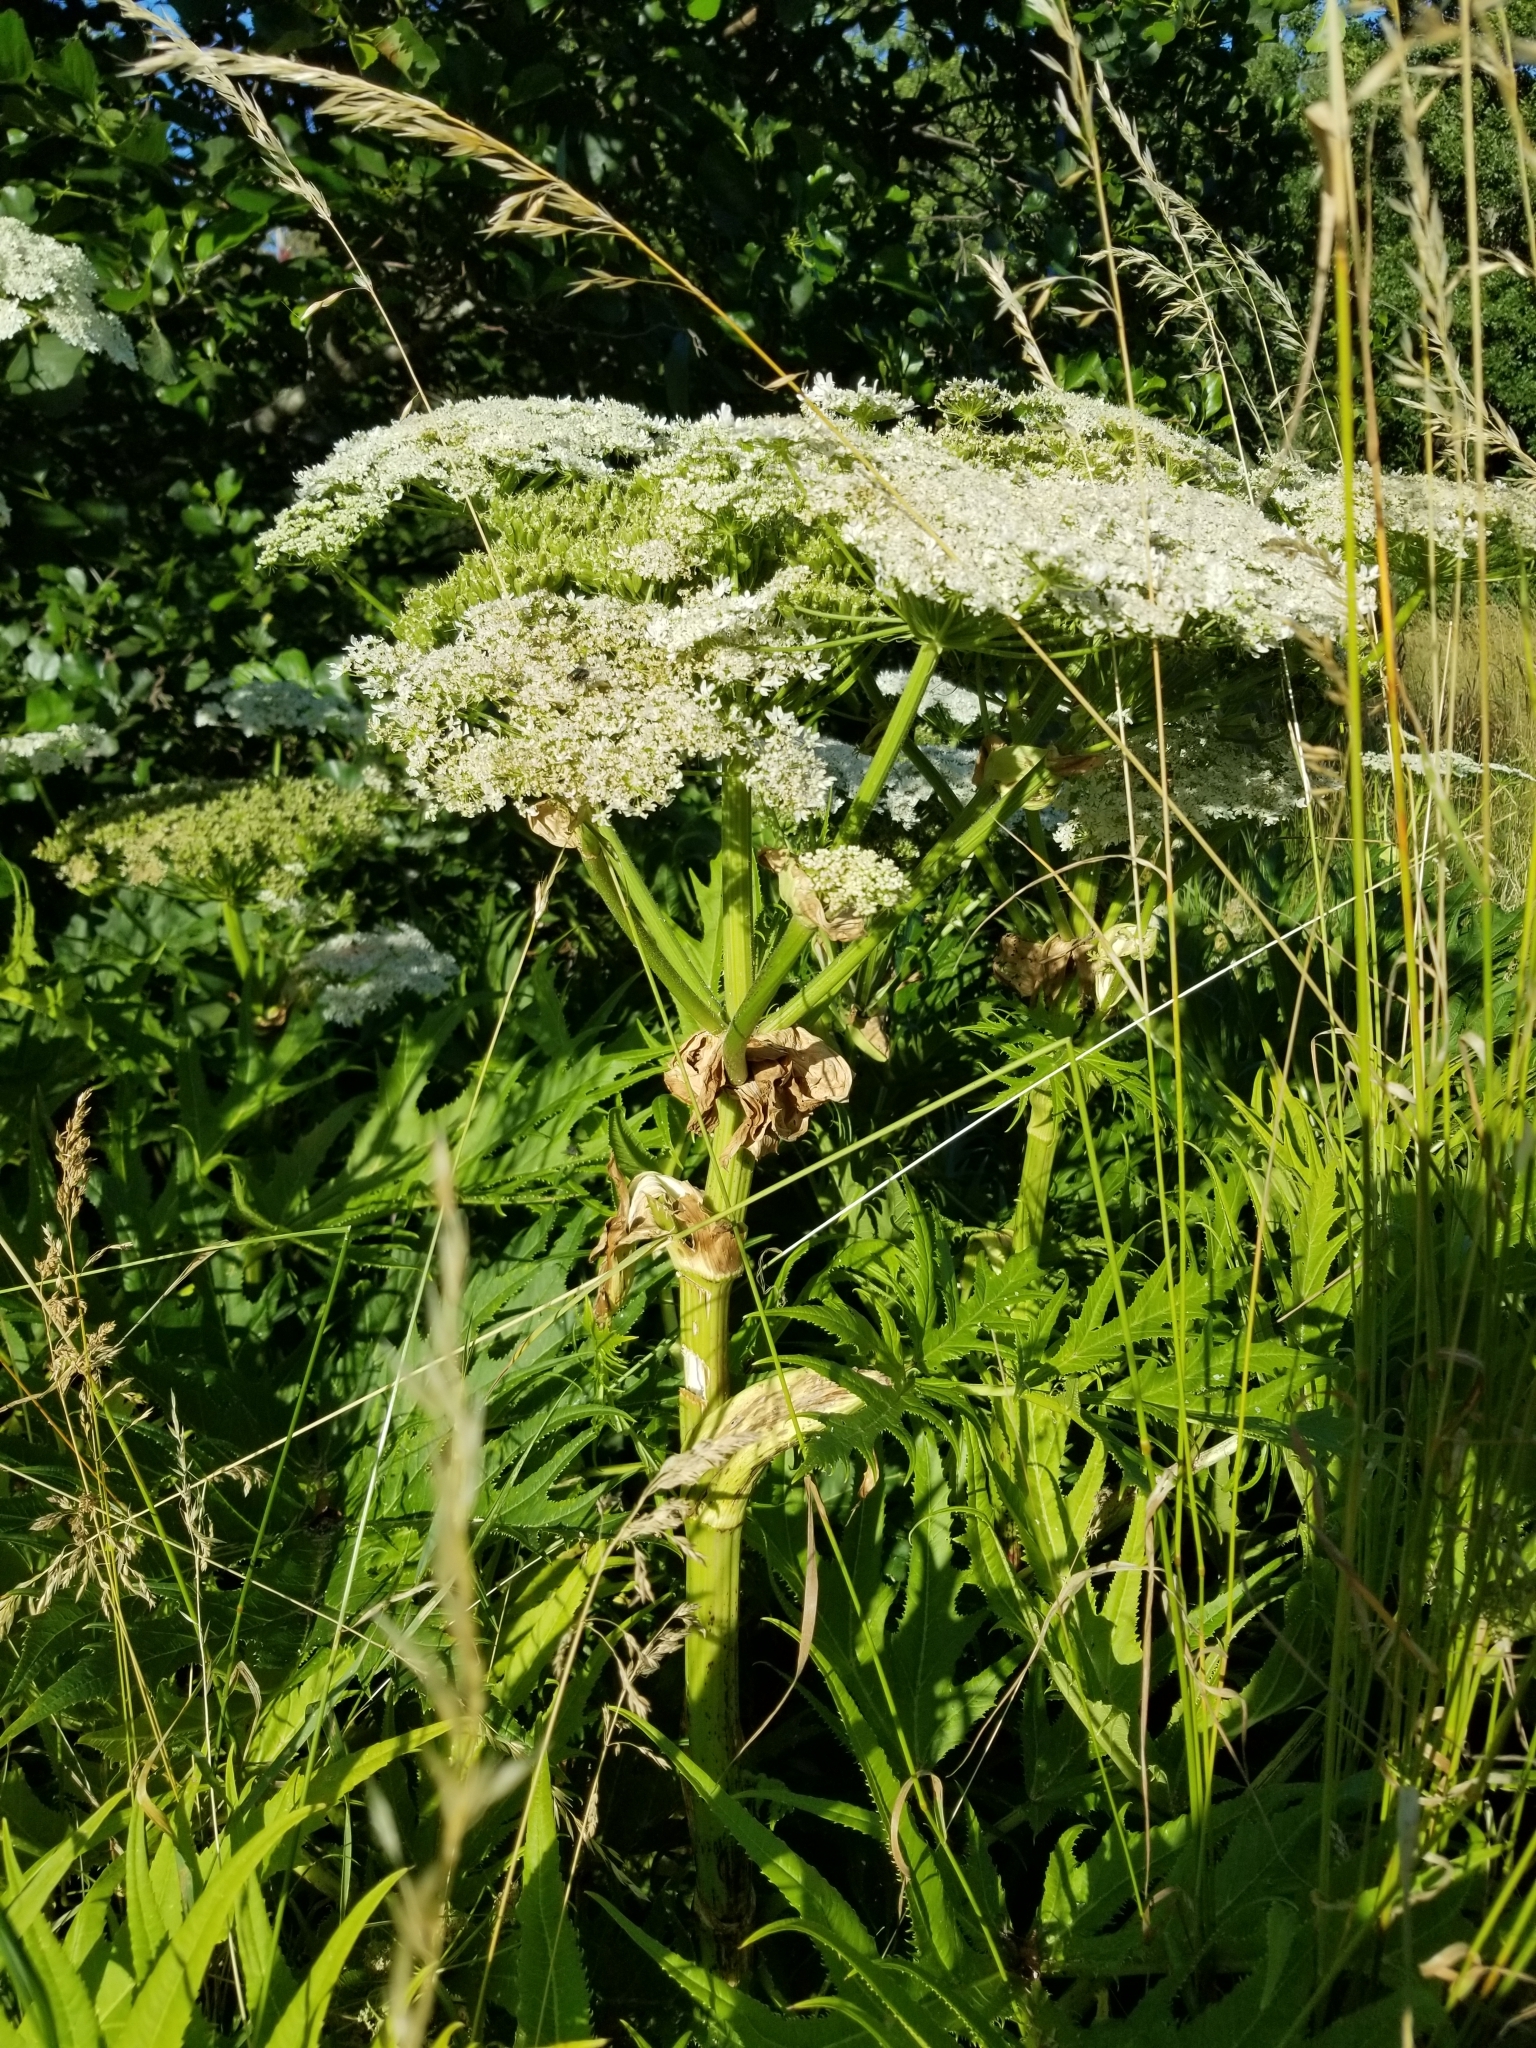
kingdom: Plantae
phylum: Tracheophyta
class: Magnoliopsida
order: Apiales
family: Apiaceae
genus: Heracleum
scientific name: Heracleum mantegazzianum
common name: Giant hogweed
